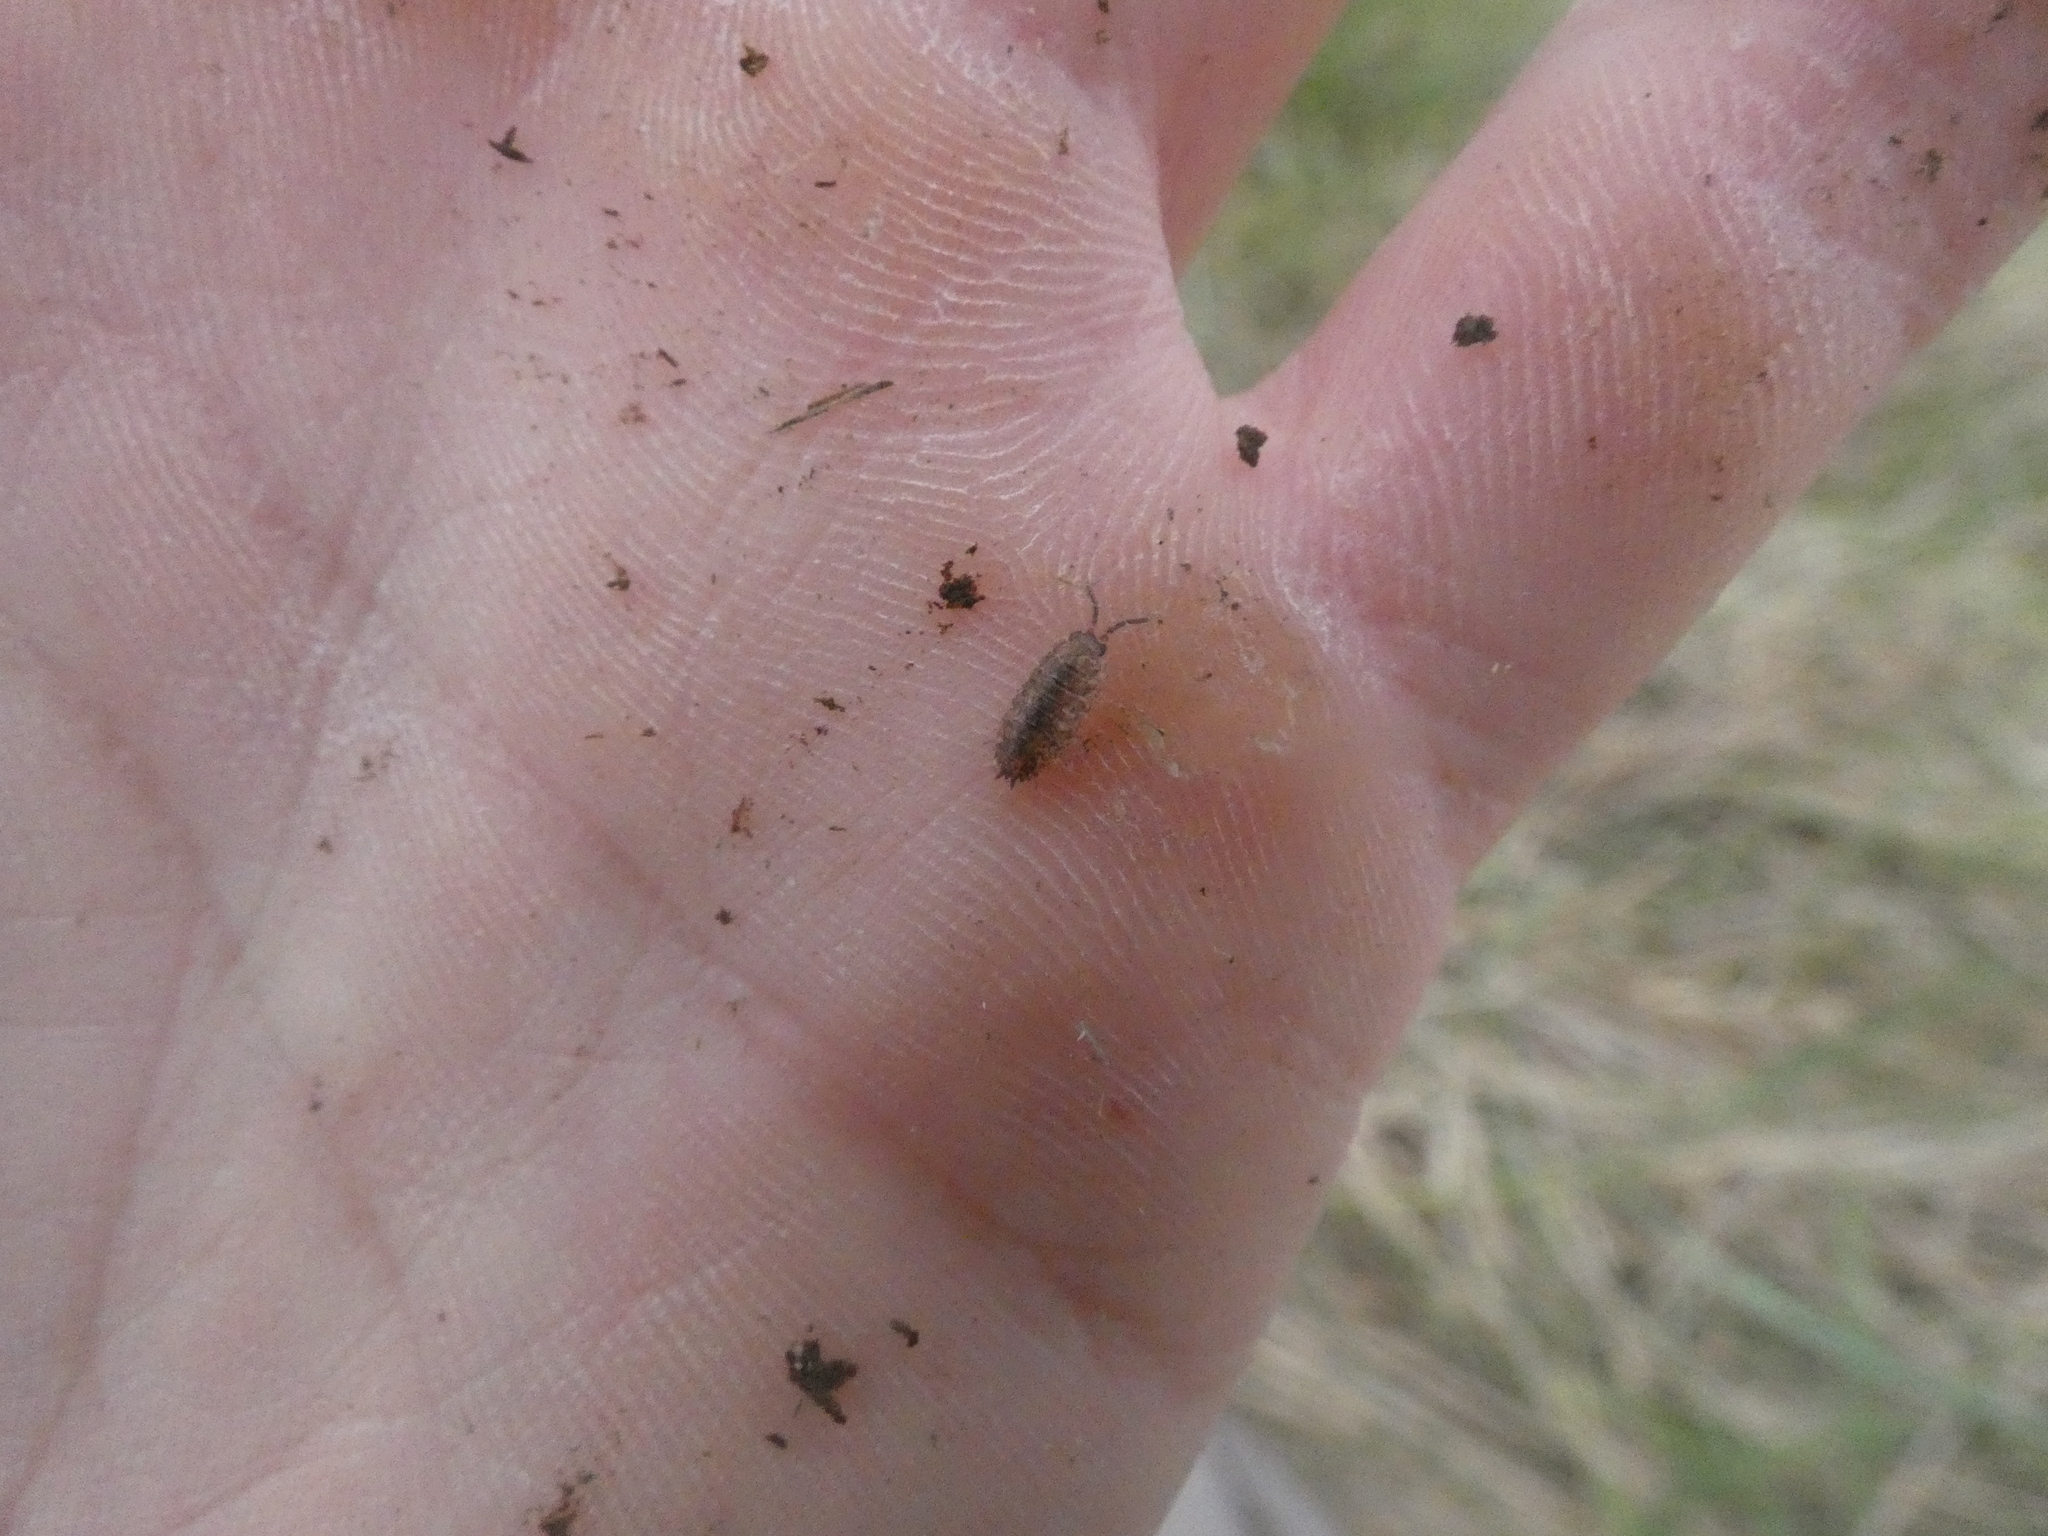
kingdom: Animalia
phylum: Arthropoda
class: Malacostraca
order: Isopoda
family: Porcellionidae
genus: Porcellio
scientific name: Porcellio scaber
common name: Common rough woodlouse
